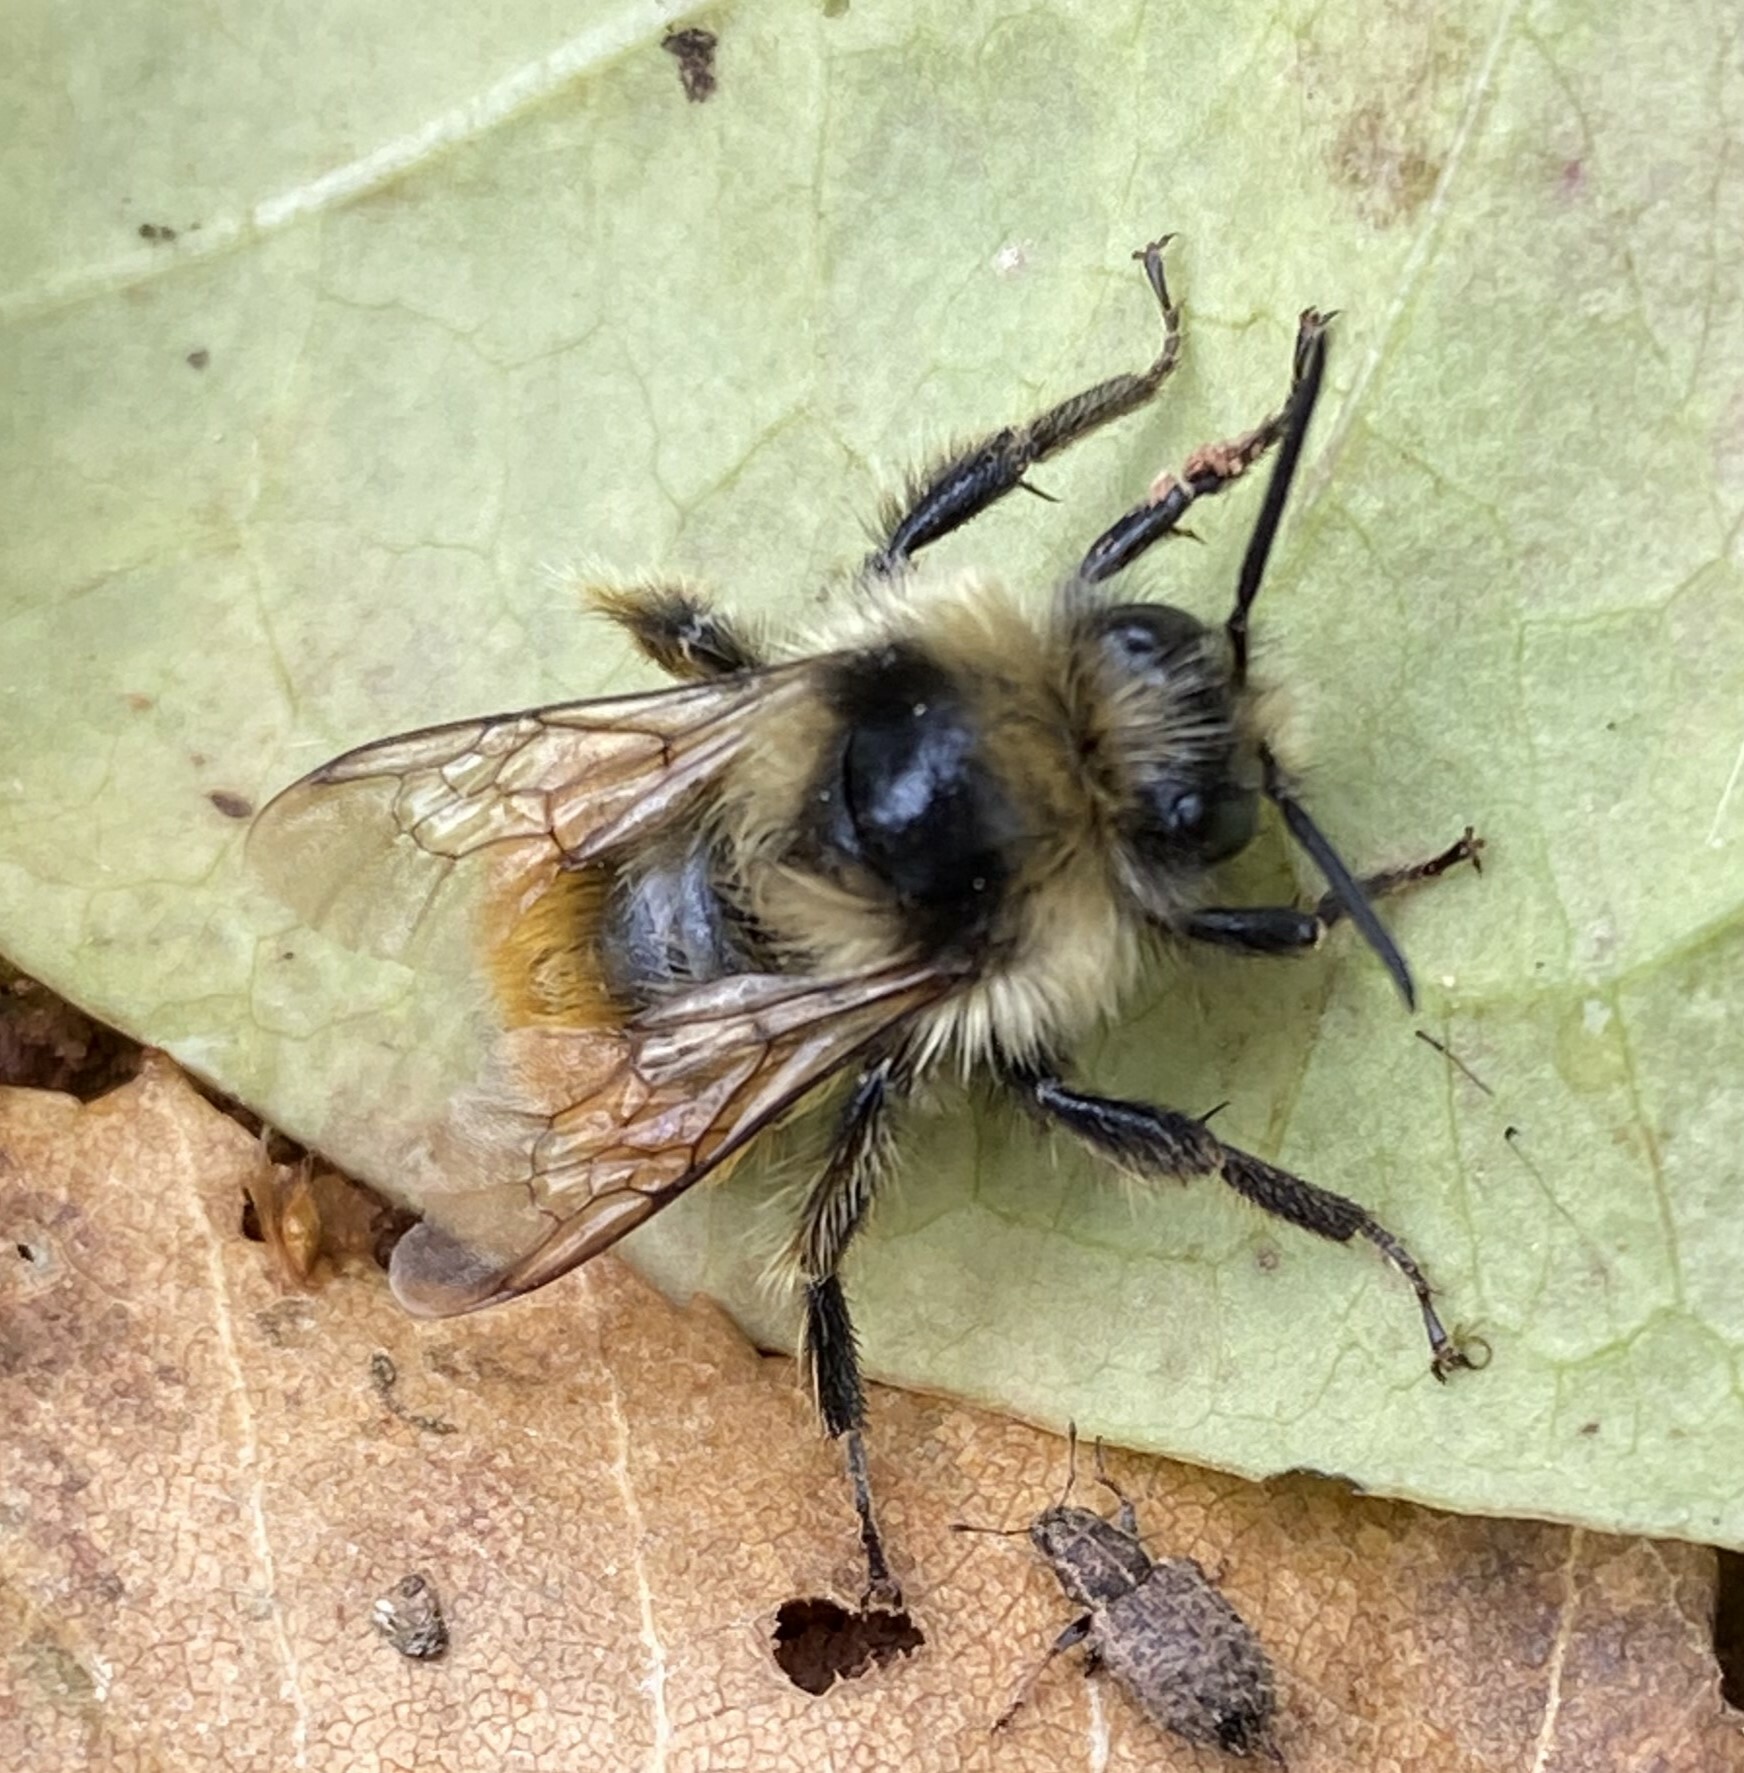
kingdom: Animalia
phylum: Arthropoda
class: Insecta
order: Hymenoptera
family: Apidae
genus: Bombus
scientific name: Bombus ternarius
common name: Tri-colored bumble bee
